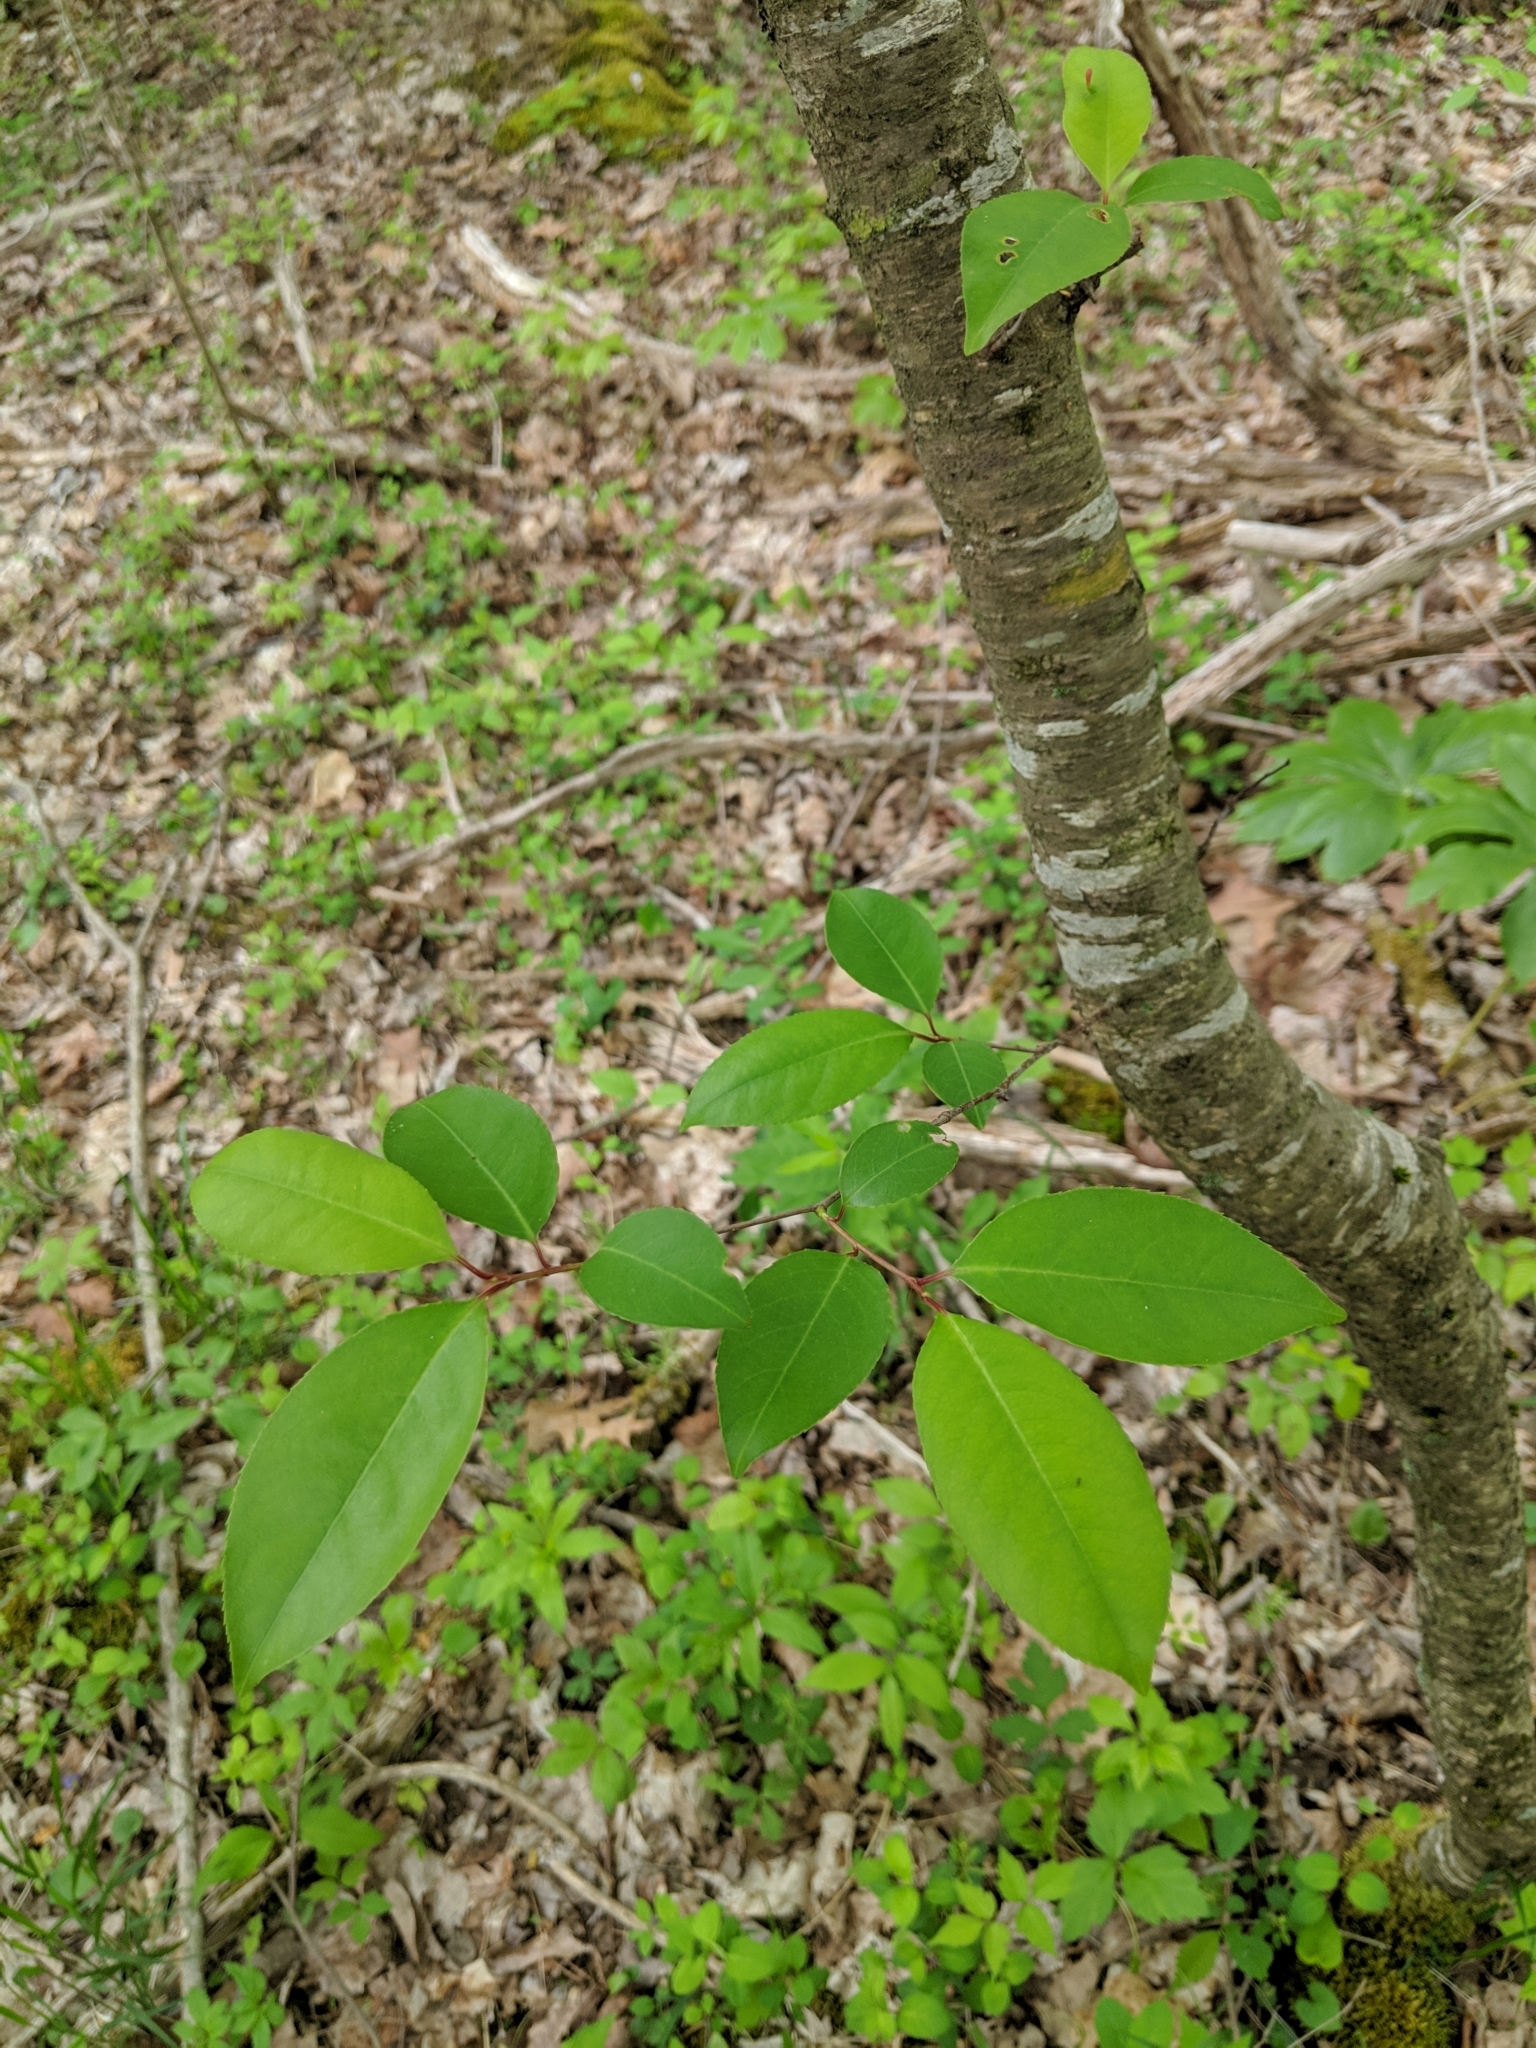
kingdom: Plantae
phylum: Tracheophyta
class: Magnoliopsida
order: Rosales
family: Rosaceae
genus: Prunus
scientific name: Prunus serotina
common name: Black cherry
